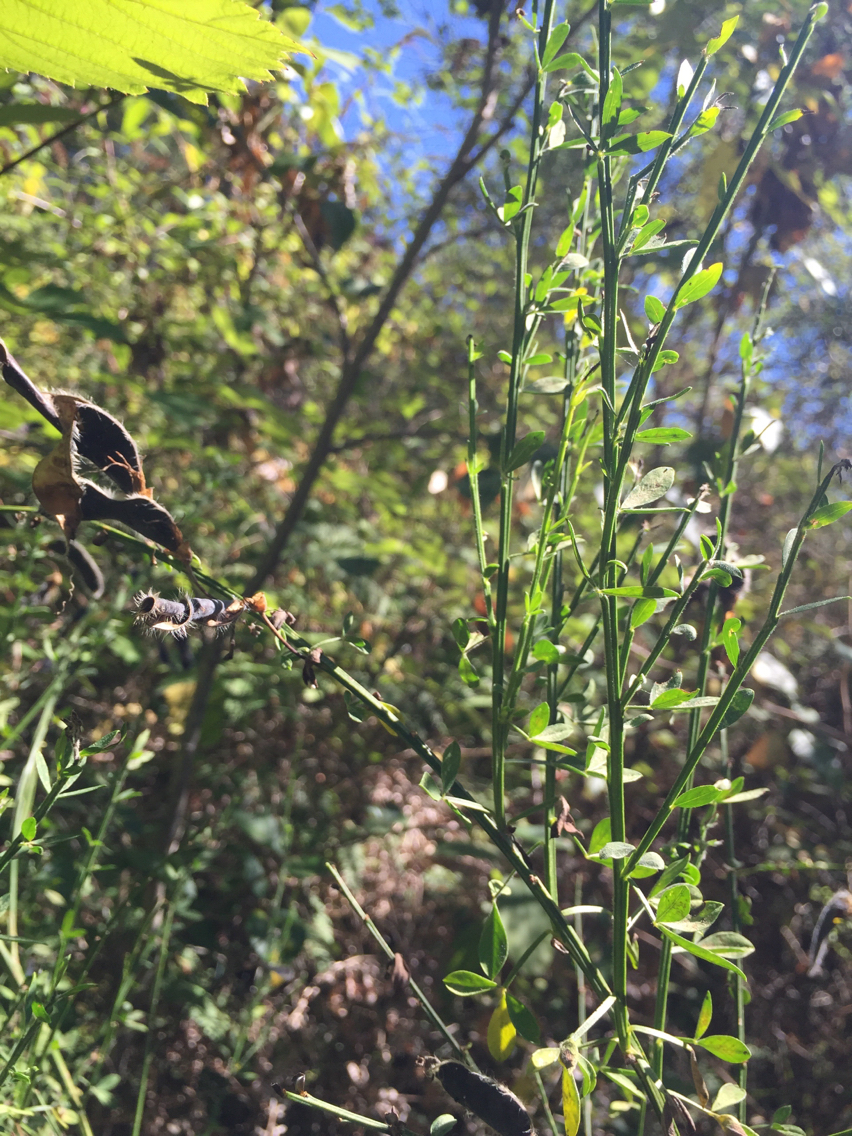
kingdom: Plantae
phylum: Tracheophyta
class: Magnoliopsida
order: Fabales
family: Fabaceae
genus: Cytisus
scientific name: Cytisus scoparius
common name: Scotch broom
